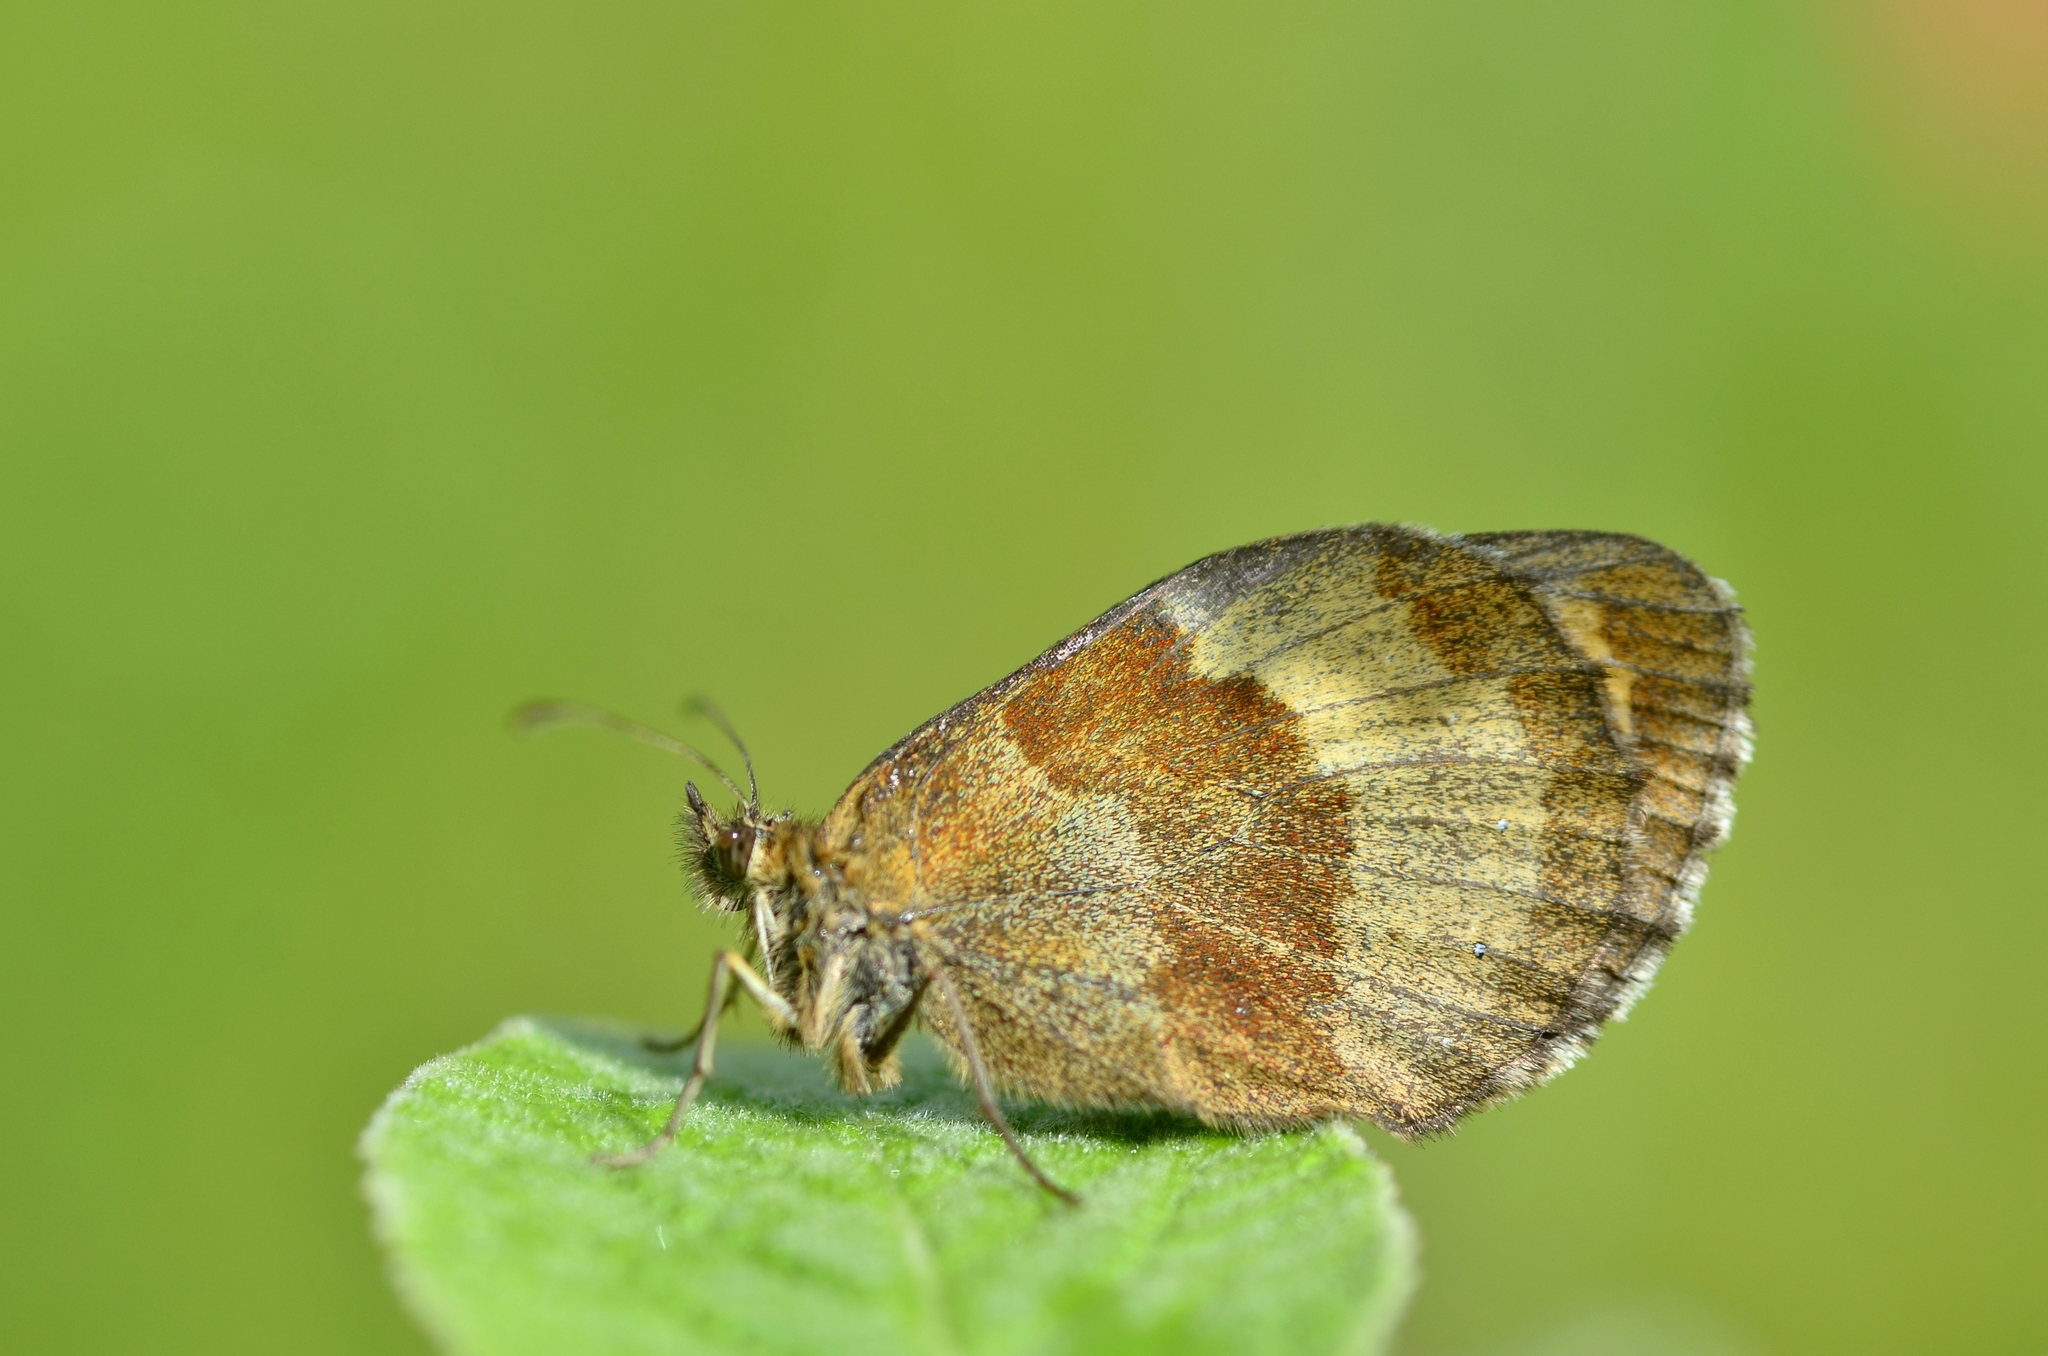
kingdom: Animalia
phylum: Arthropoda
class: Insecta
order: Lepidoptera
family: Nymphalidae
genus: Erebia
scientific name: Erebia aethiops
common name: Scotch argus
